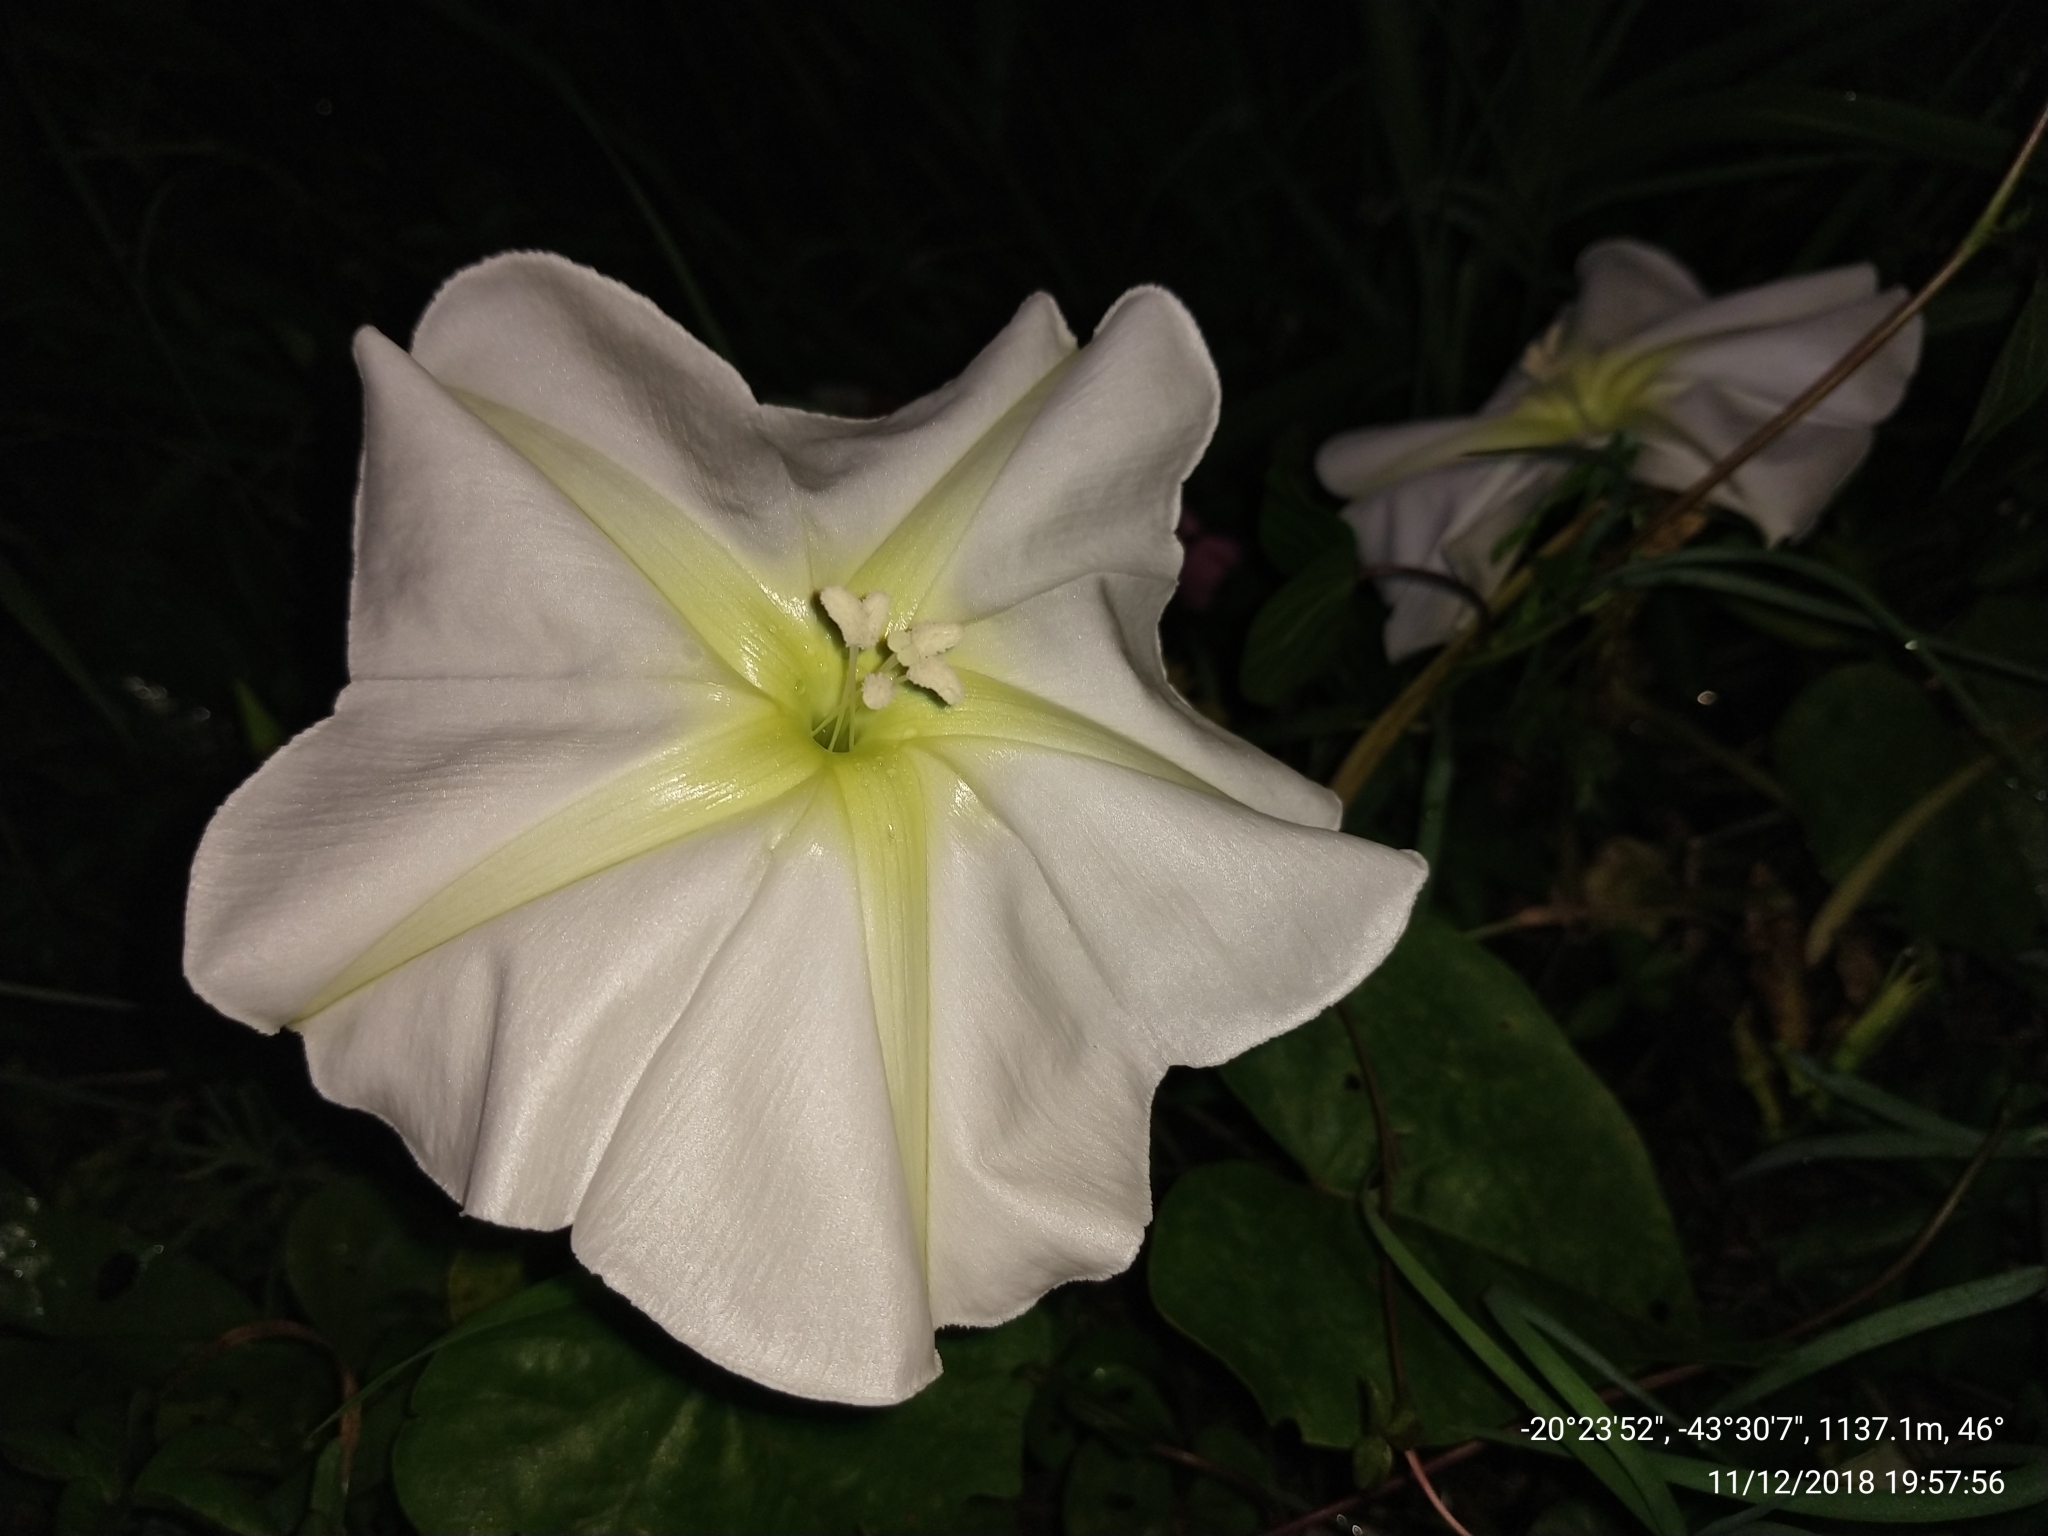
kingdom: Plantae
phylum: Tracheophyta
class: Magnoliopsida
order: Solanales
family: Convolvulaceae
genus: Ipomoea
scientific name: Ipomoea alba
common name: Moonflower
